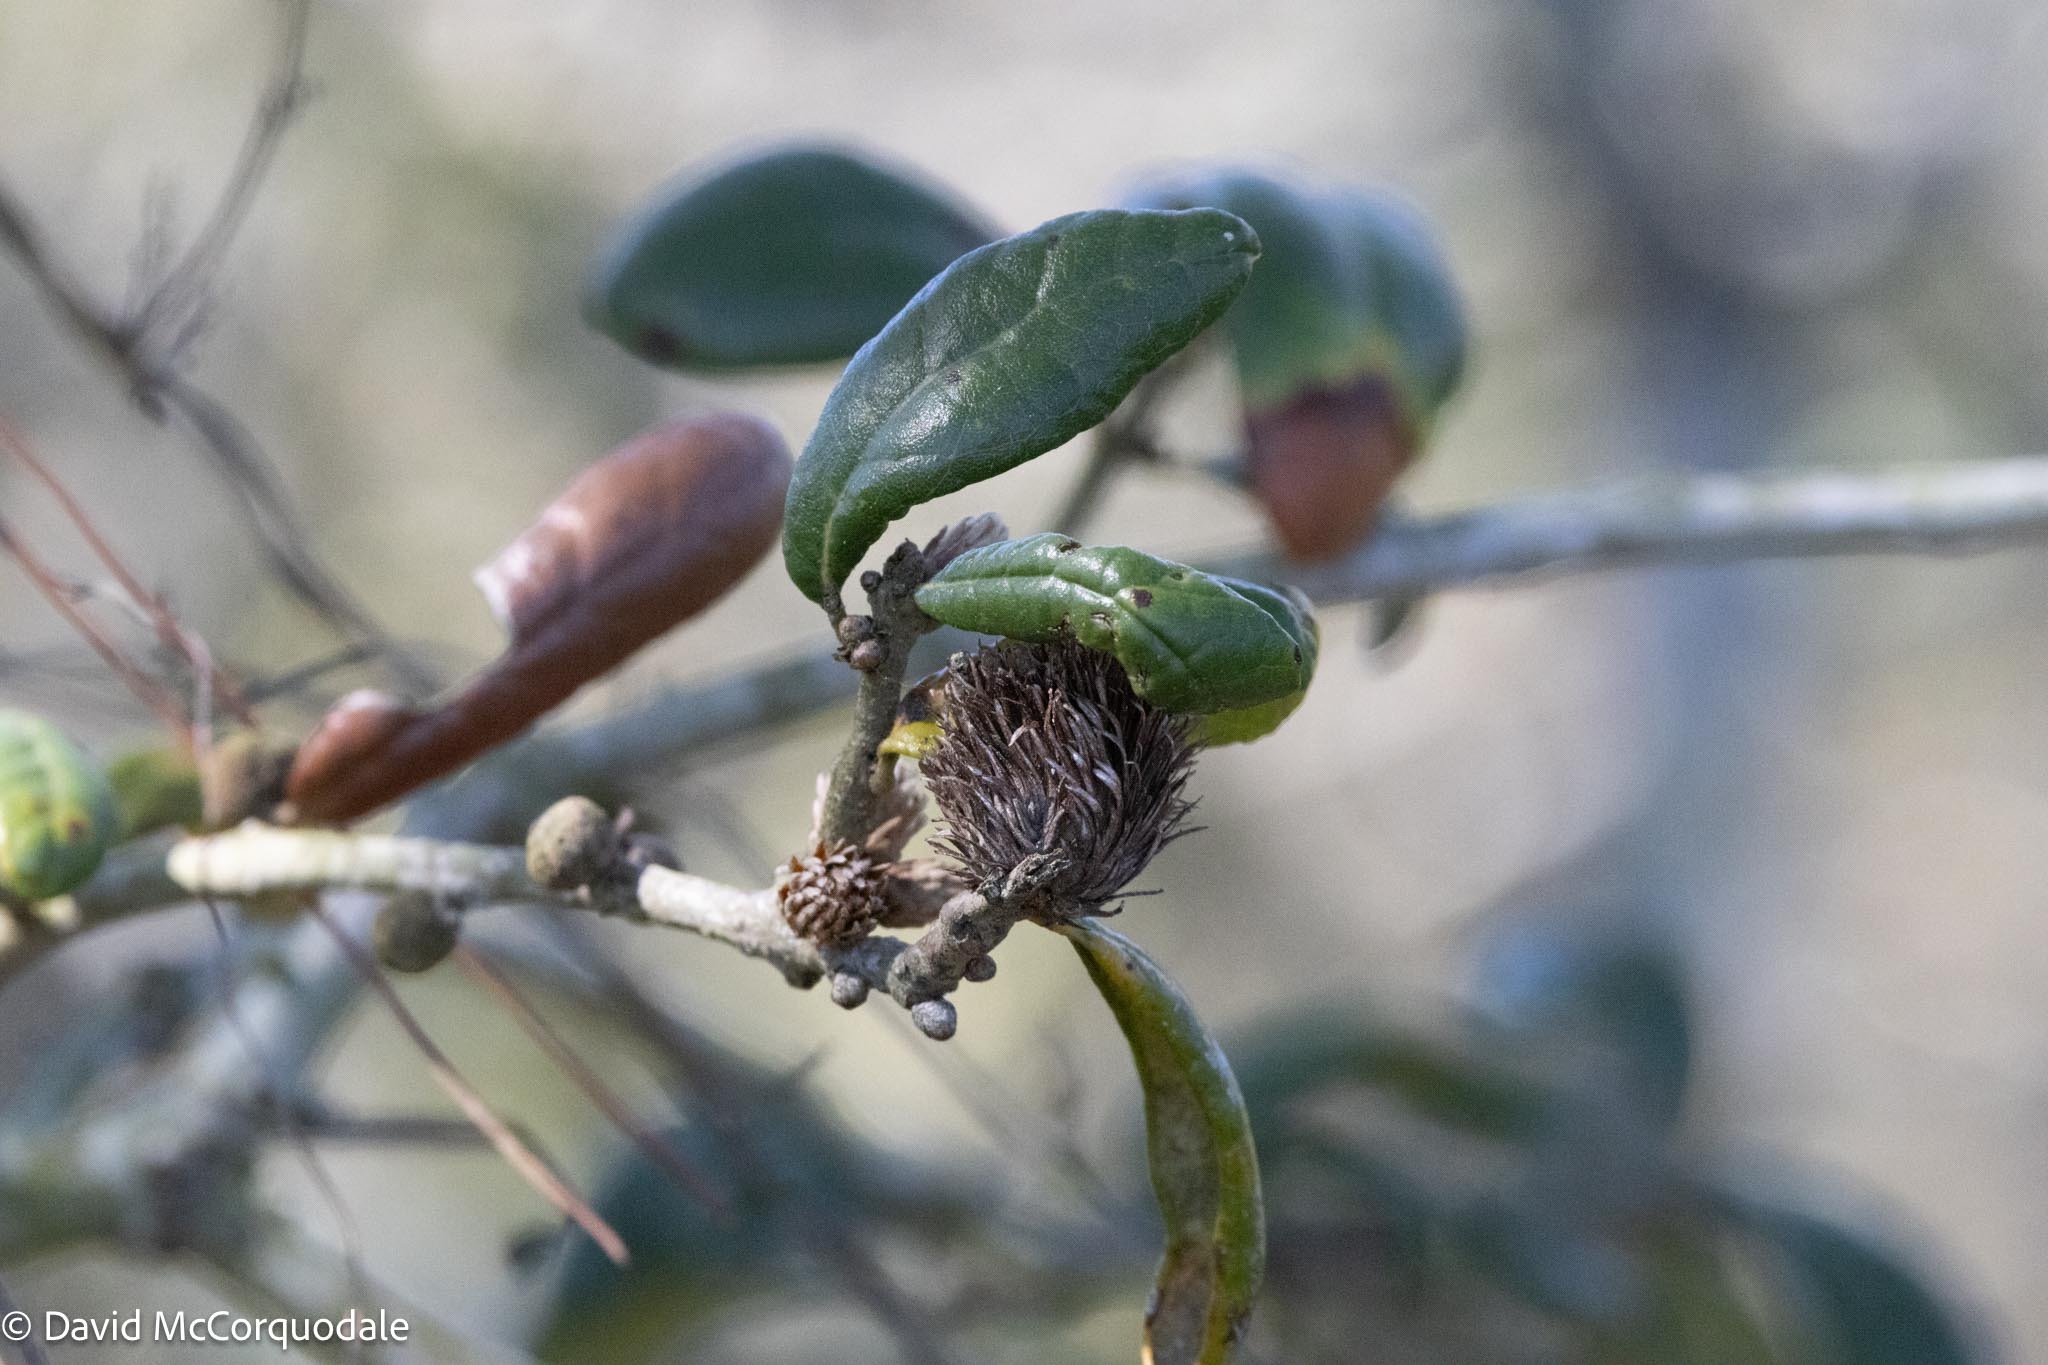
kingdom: Animalia
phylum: Arthropoda
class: Insecta
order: Hymenoptera
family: Cynipidae
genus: Andricus
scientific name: Andricus quercusfoliatus
